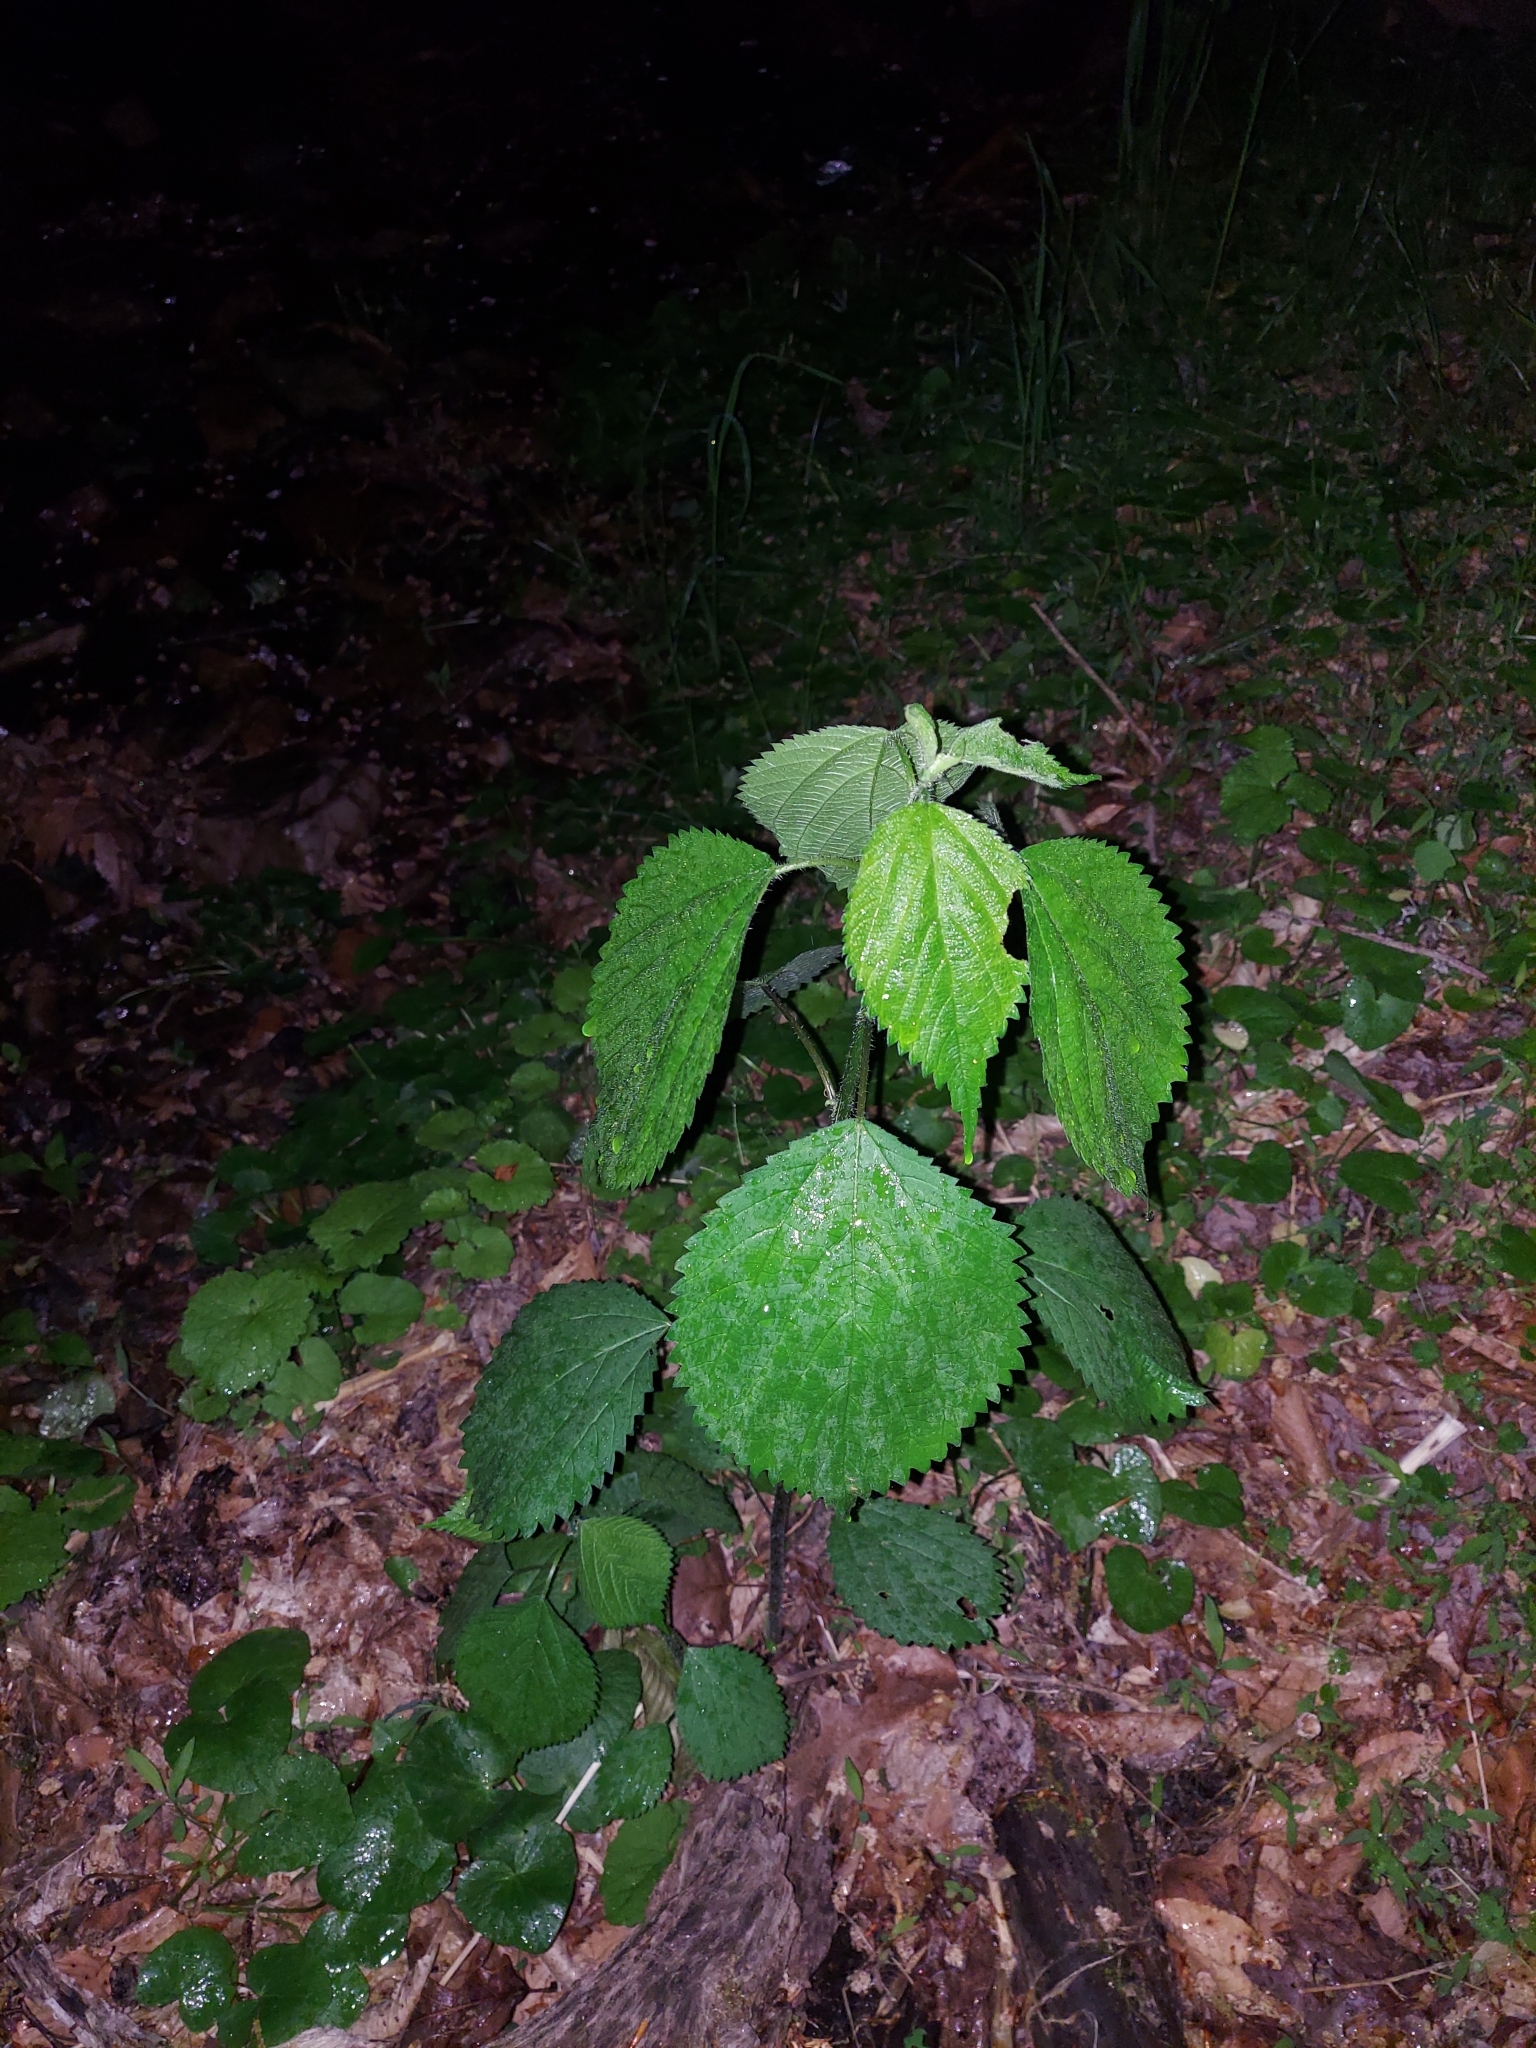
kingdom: Plantae
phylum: Tracheophyta
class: Magnoliopsida
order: Rosales
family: Urticaceae
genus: Laportea
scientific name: Laportea canadensis
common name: Canada nettle
